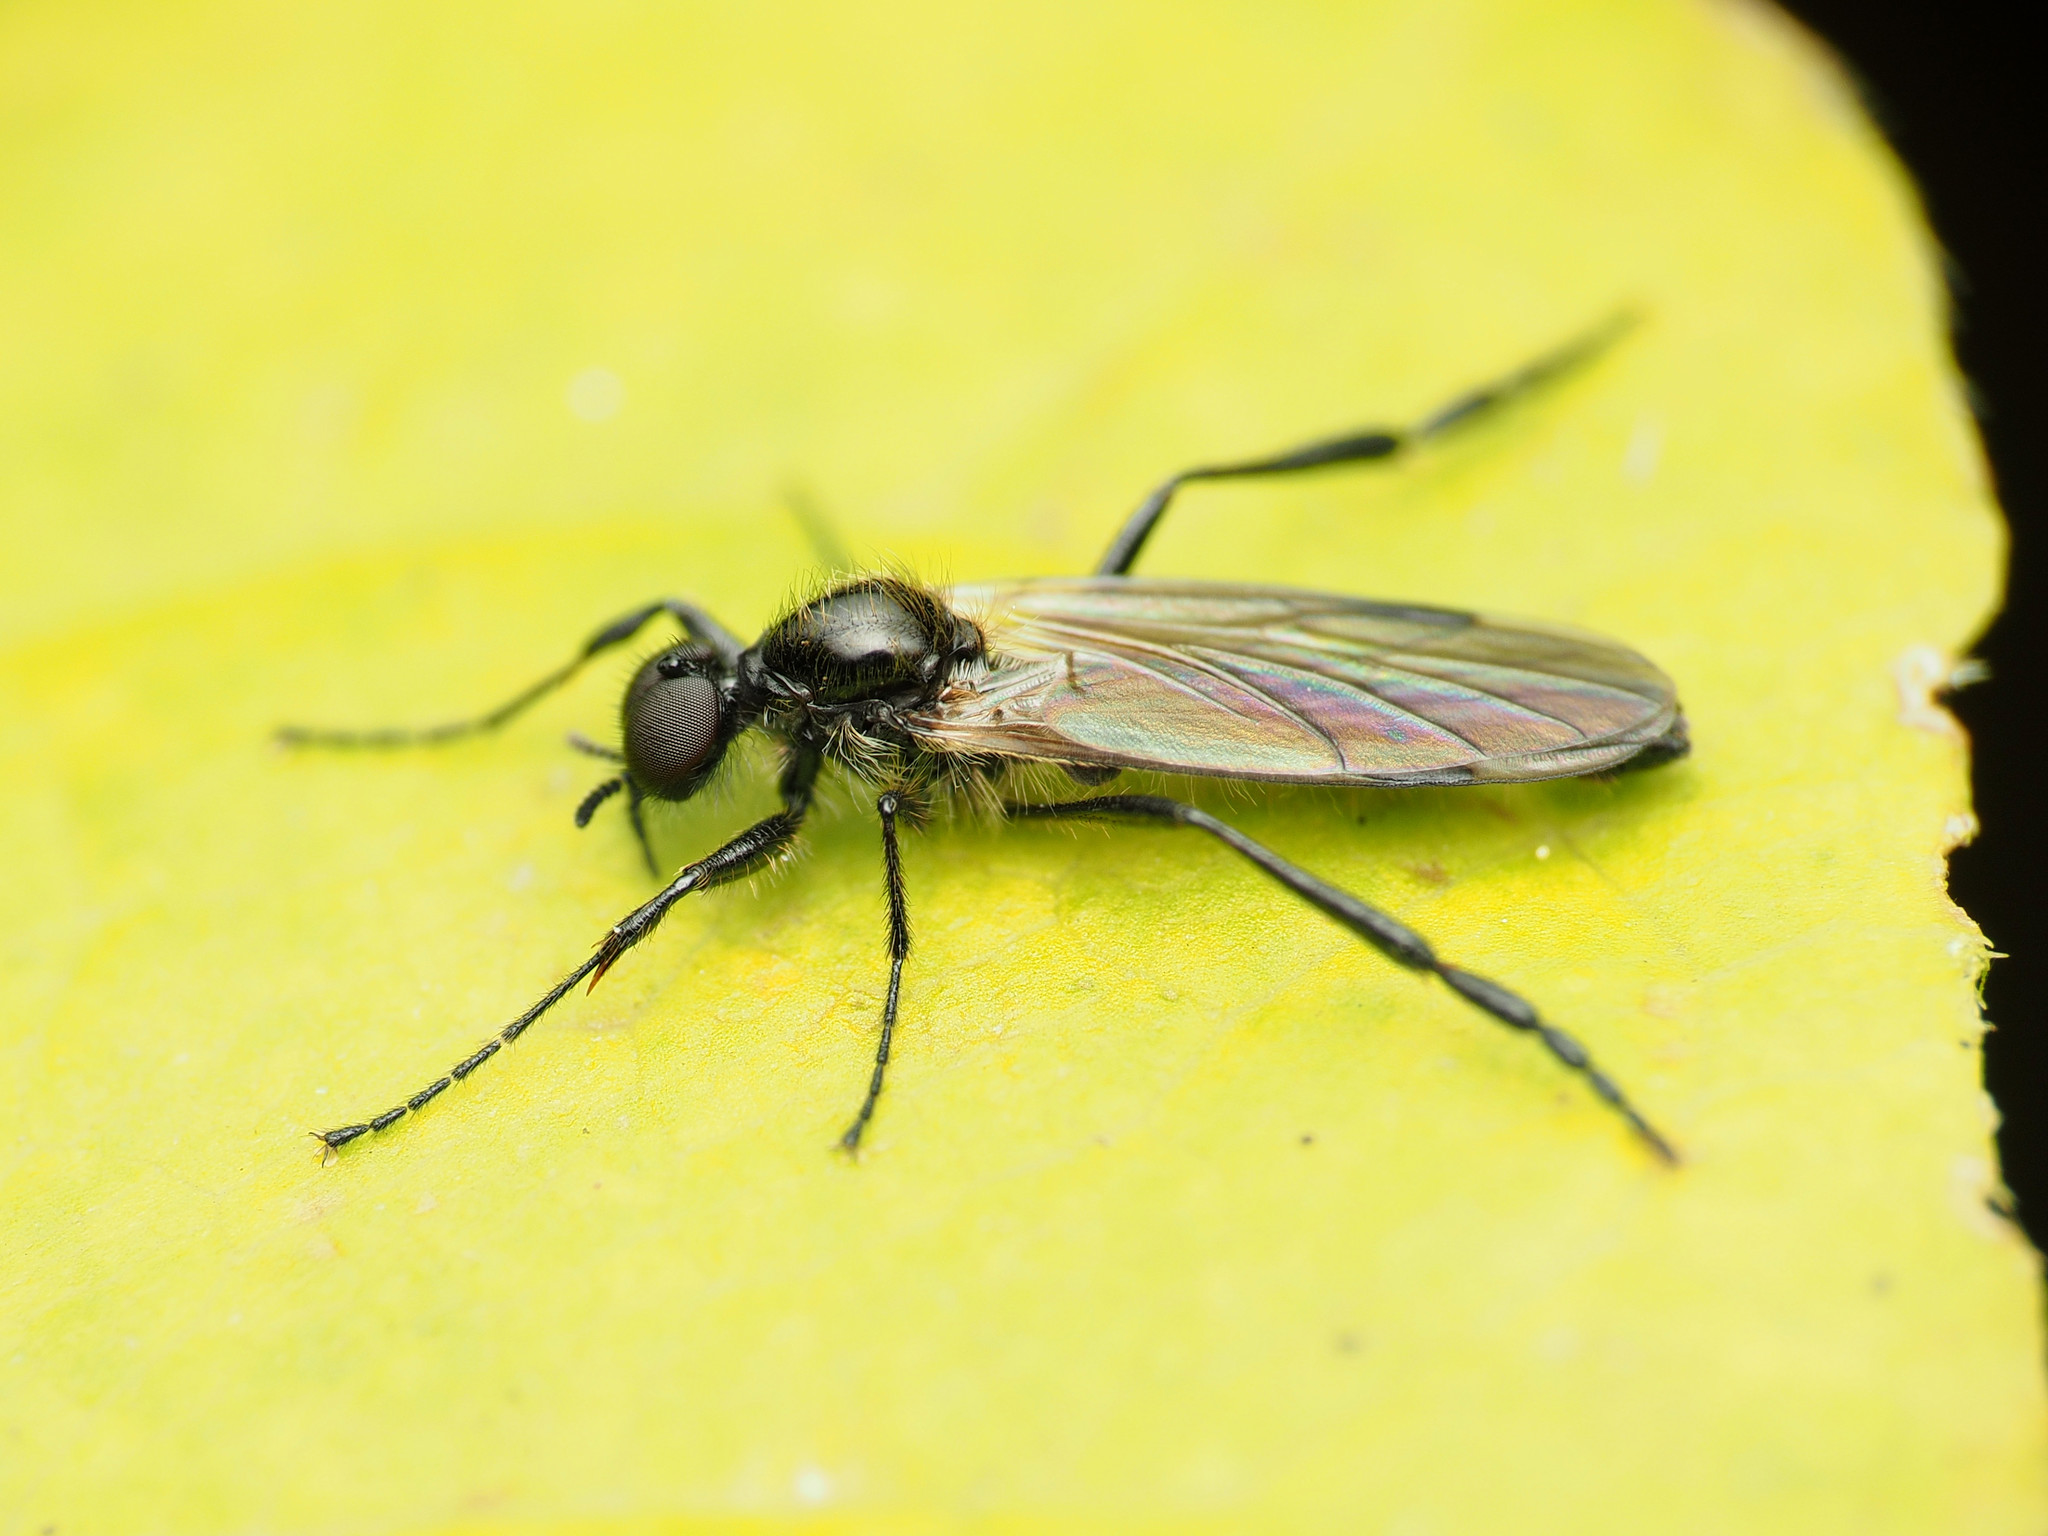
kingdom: Animalia
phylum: Arthropoda
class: Insecta
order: Diptera
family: Bibionidae
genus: Bibio
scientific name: Bibio longipes
